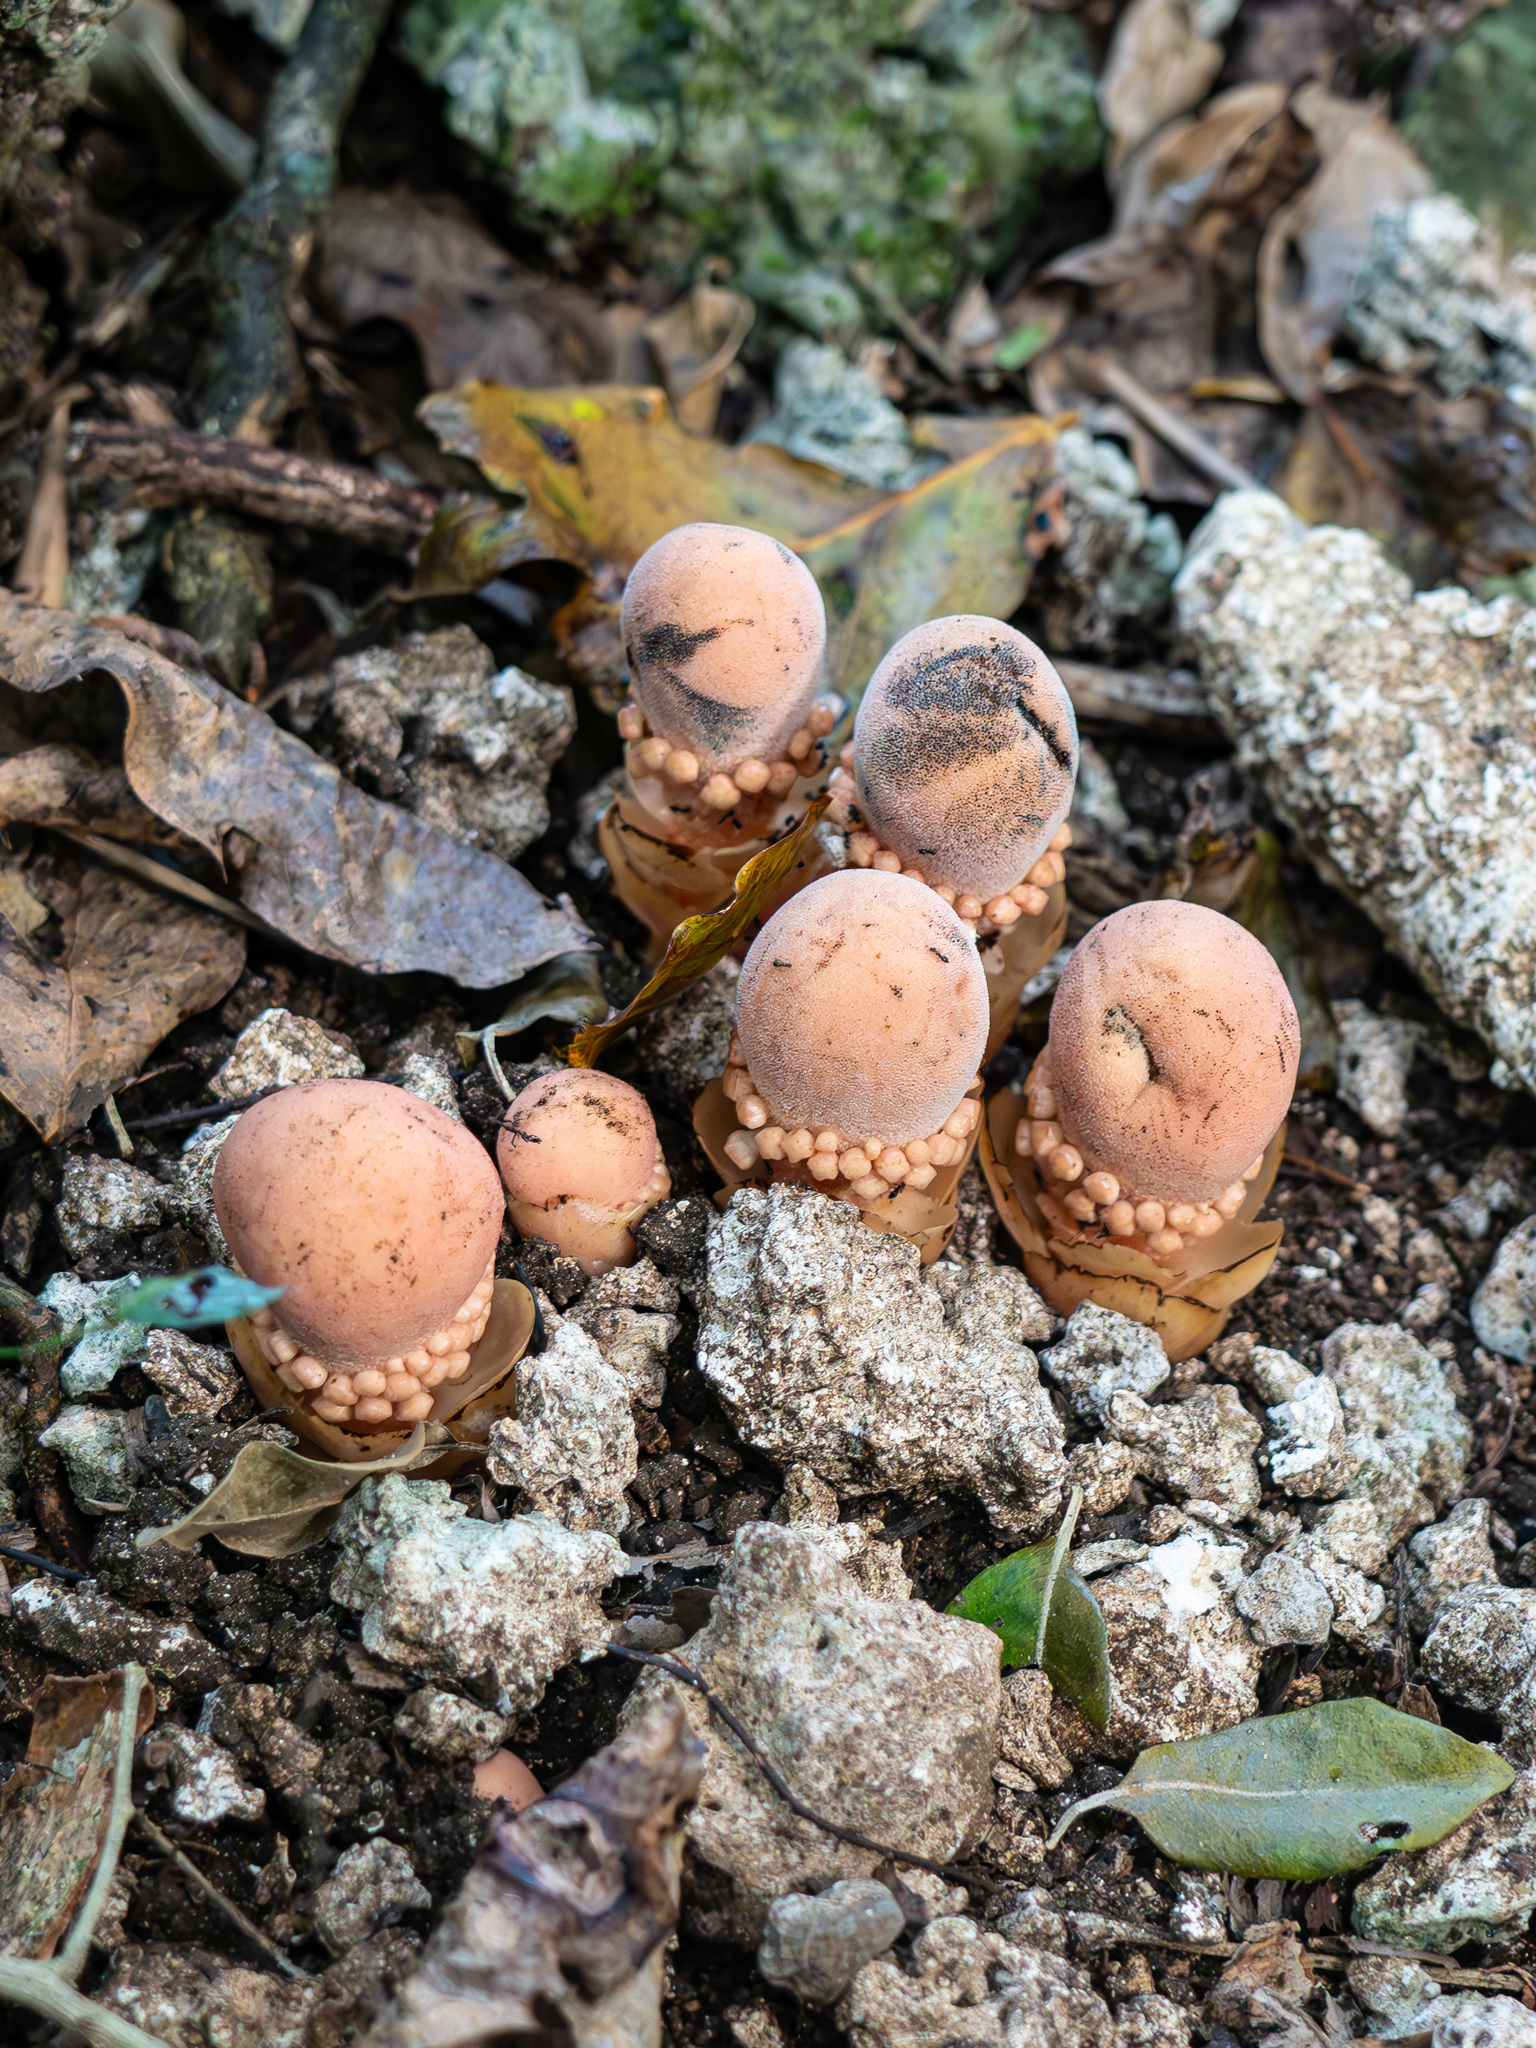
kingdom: Plantae
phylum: Tracheophyta
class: Magnoliopsida
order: Santalales
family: Balanophoraceae
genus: Balanophora
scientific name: Balanophora fungosa
